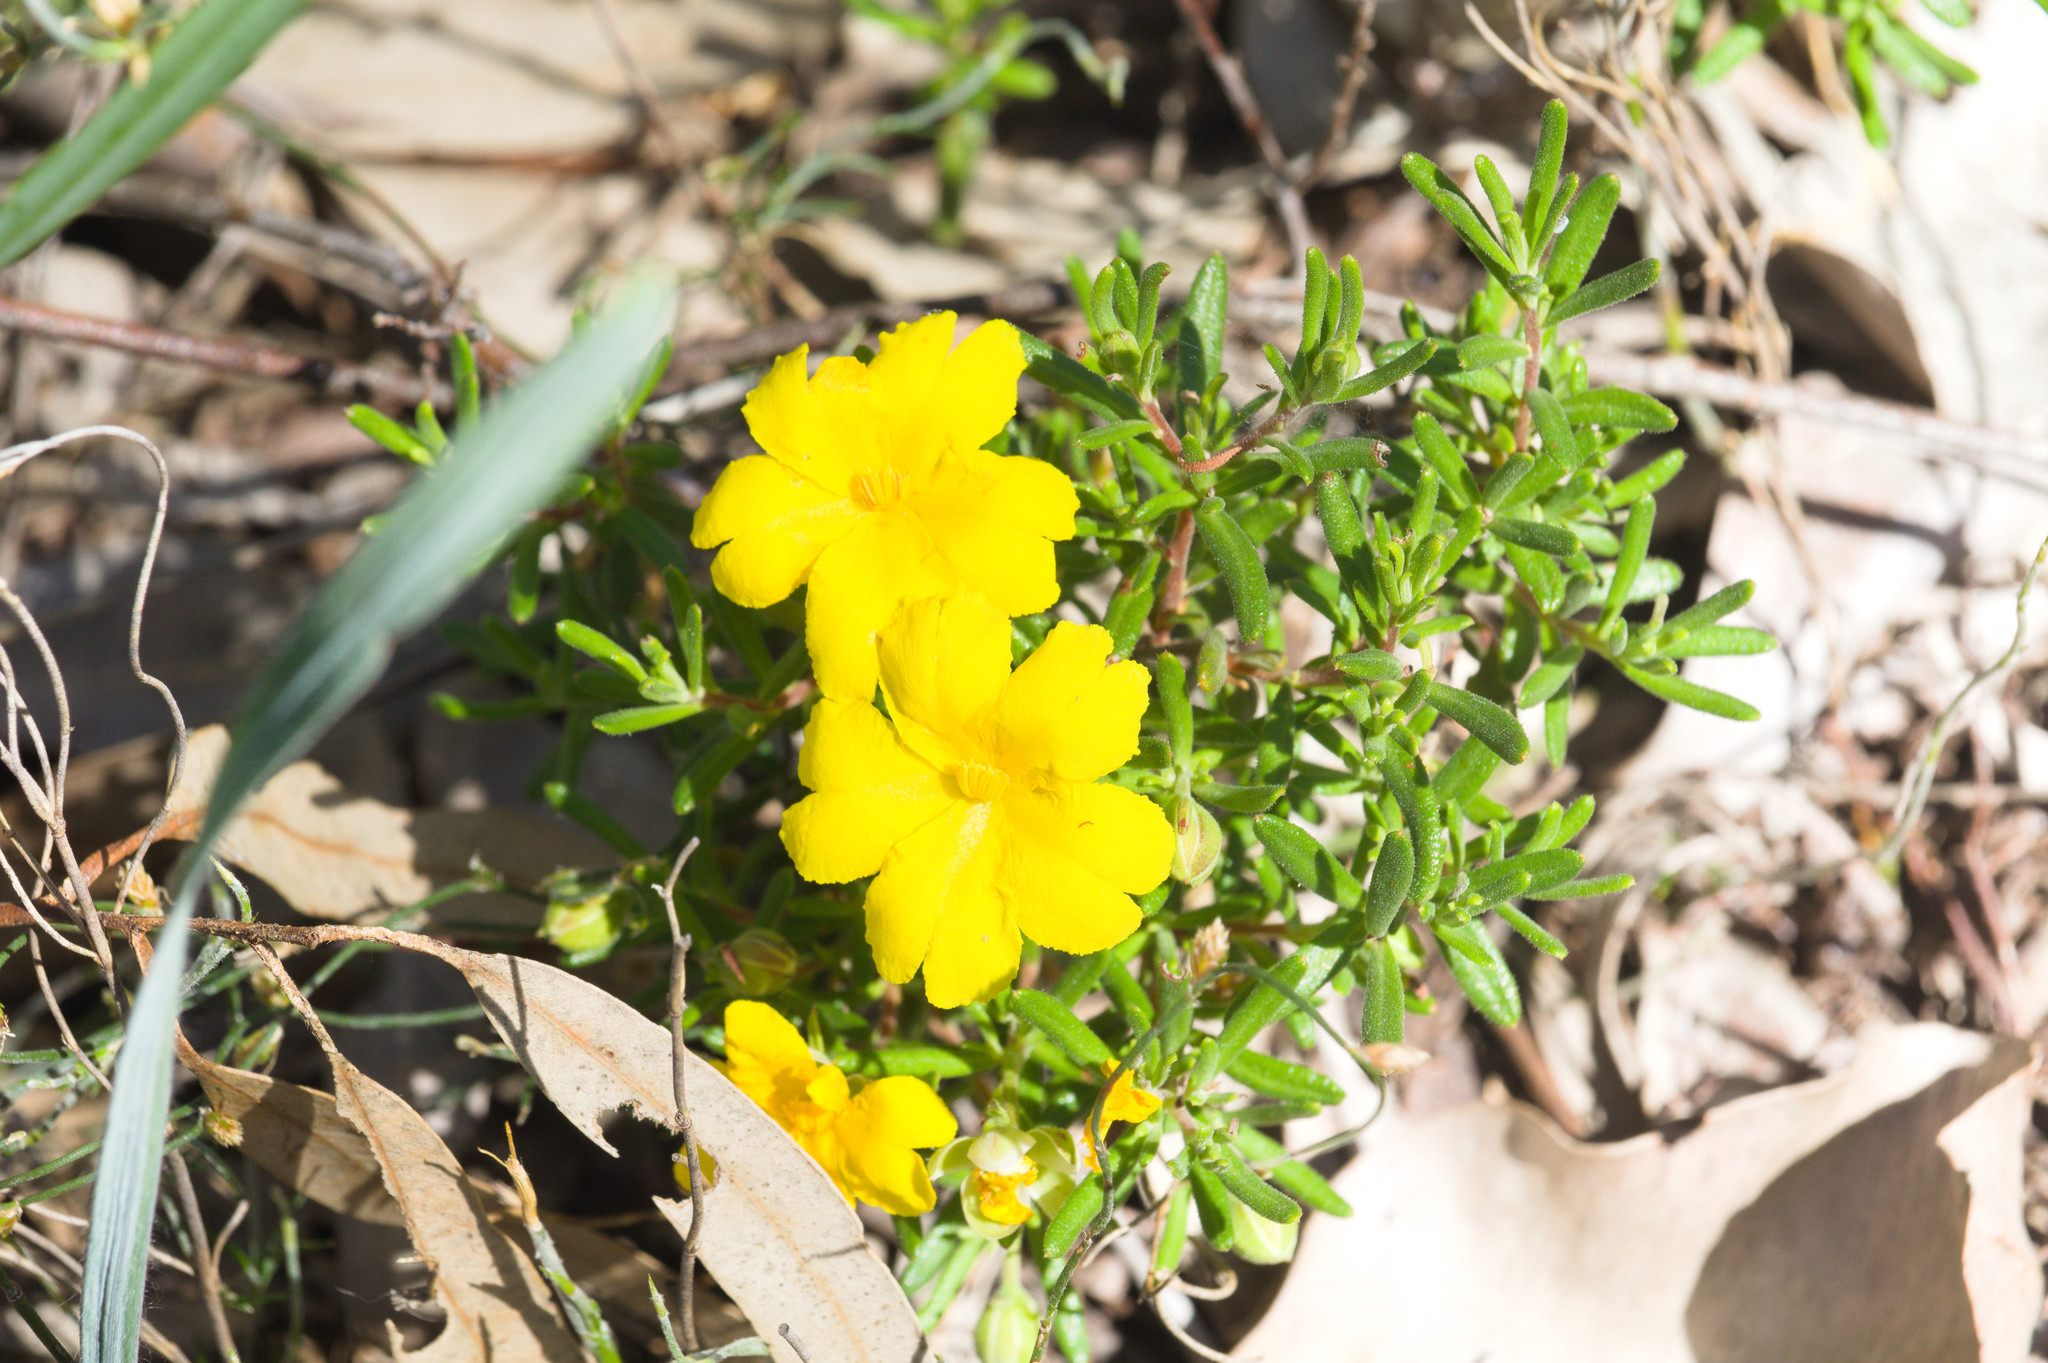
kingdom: Plantae
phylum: Tracheophyta
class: Magnoliopsida
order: Dilleniales
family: Dilleniaceae
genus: Hibbertia
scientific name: Hibbertia hypericoides
